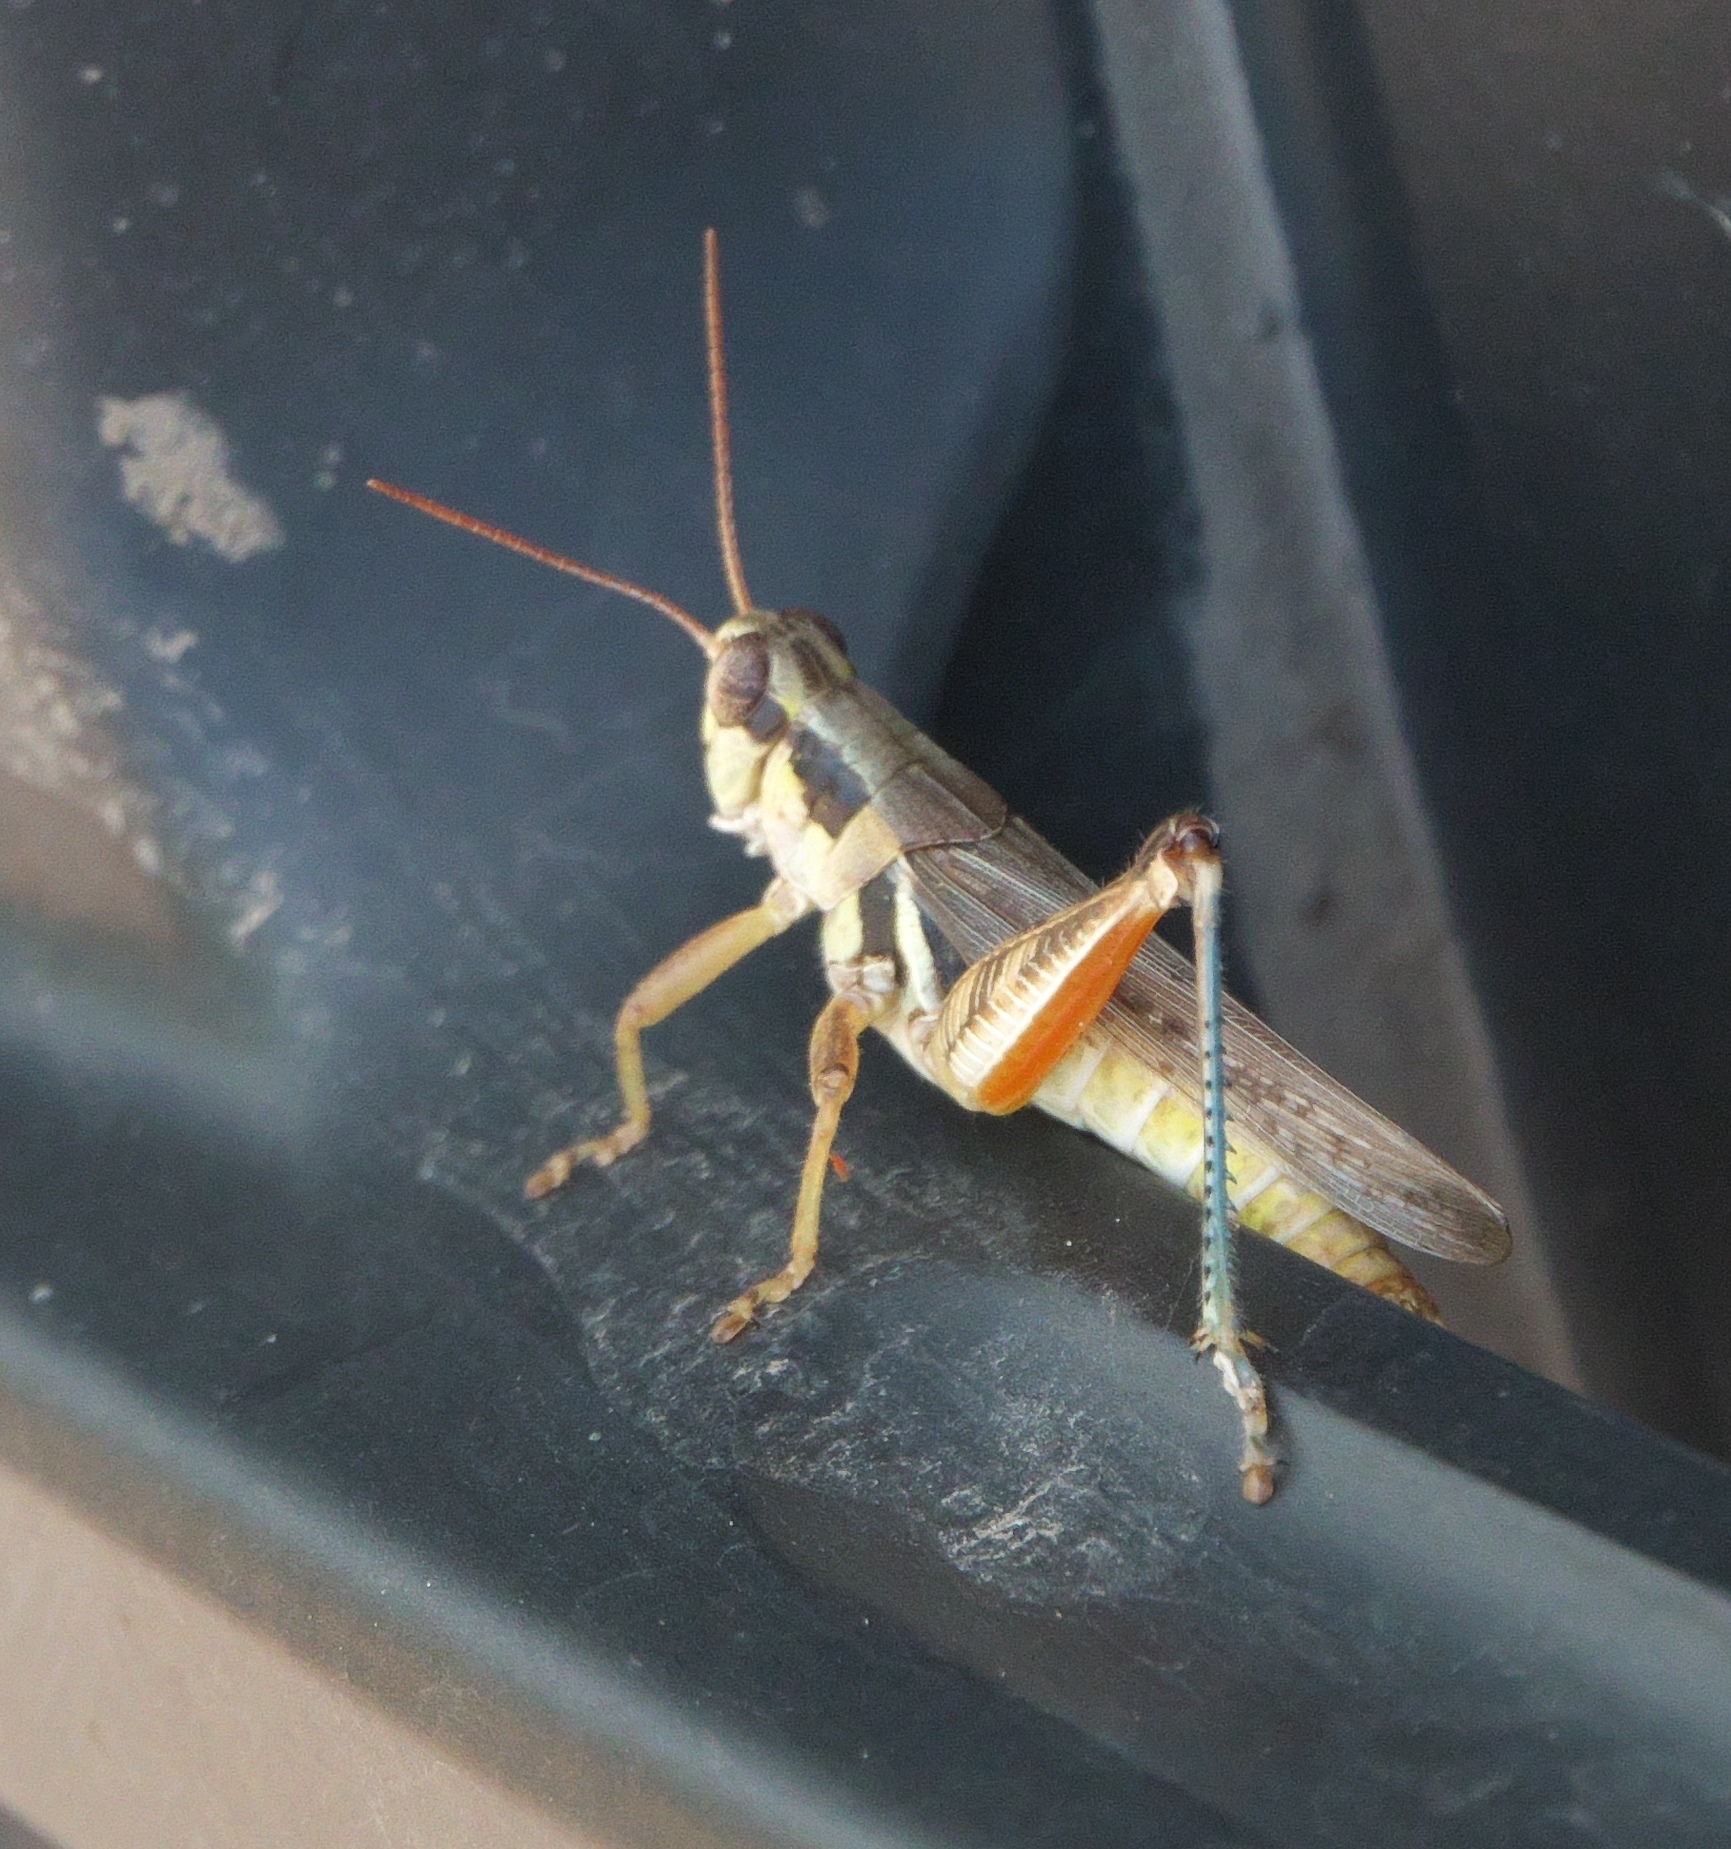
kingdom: Animalia
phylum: Arthropoda
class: Insecta
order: Orthoptera
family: Acrididae
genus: Melanoplus
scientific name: Melanoplus confusus
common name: Little pasture locust
